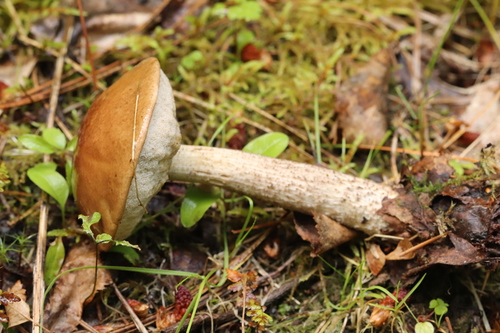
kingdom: Fungi
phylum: Basidiomycota
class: Agaricomycetes
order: Boletales
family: Boletaceae
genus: Leccinum
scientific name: Leccinum holopus
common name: Ghost bolete
